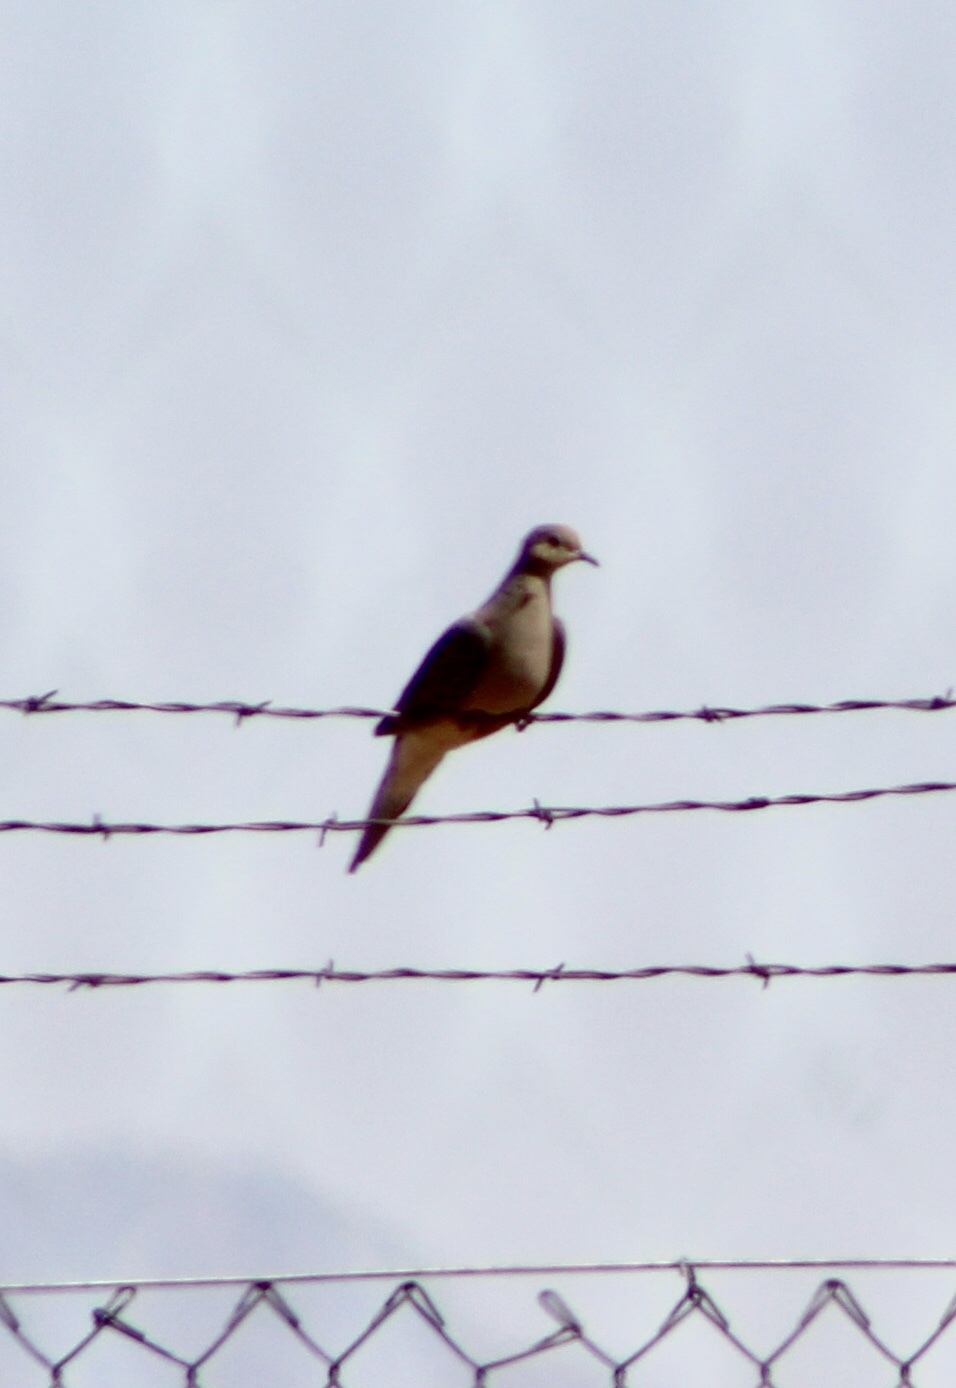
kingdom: Animalia
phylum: Chordata
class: Aves
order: Columbiformes
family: Columbidae
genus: Zenaida
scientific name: Zenaida macroura
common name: Mourning dove
